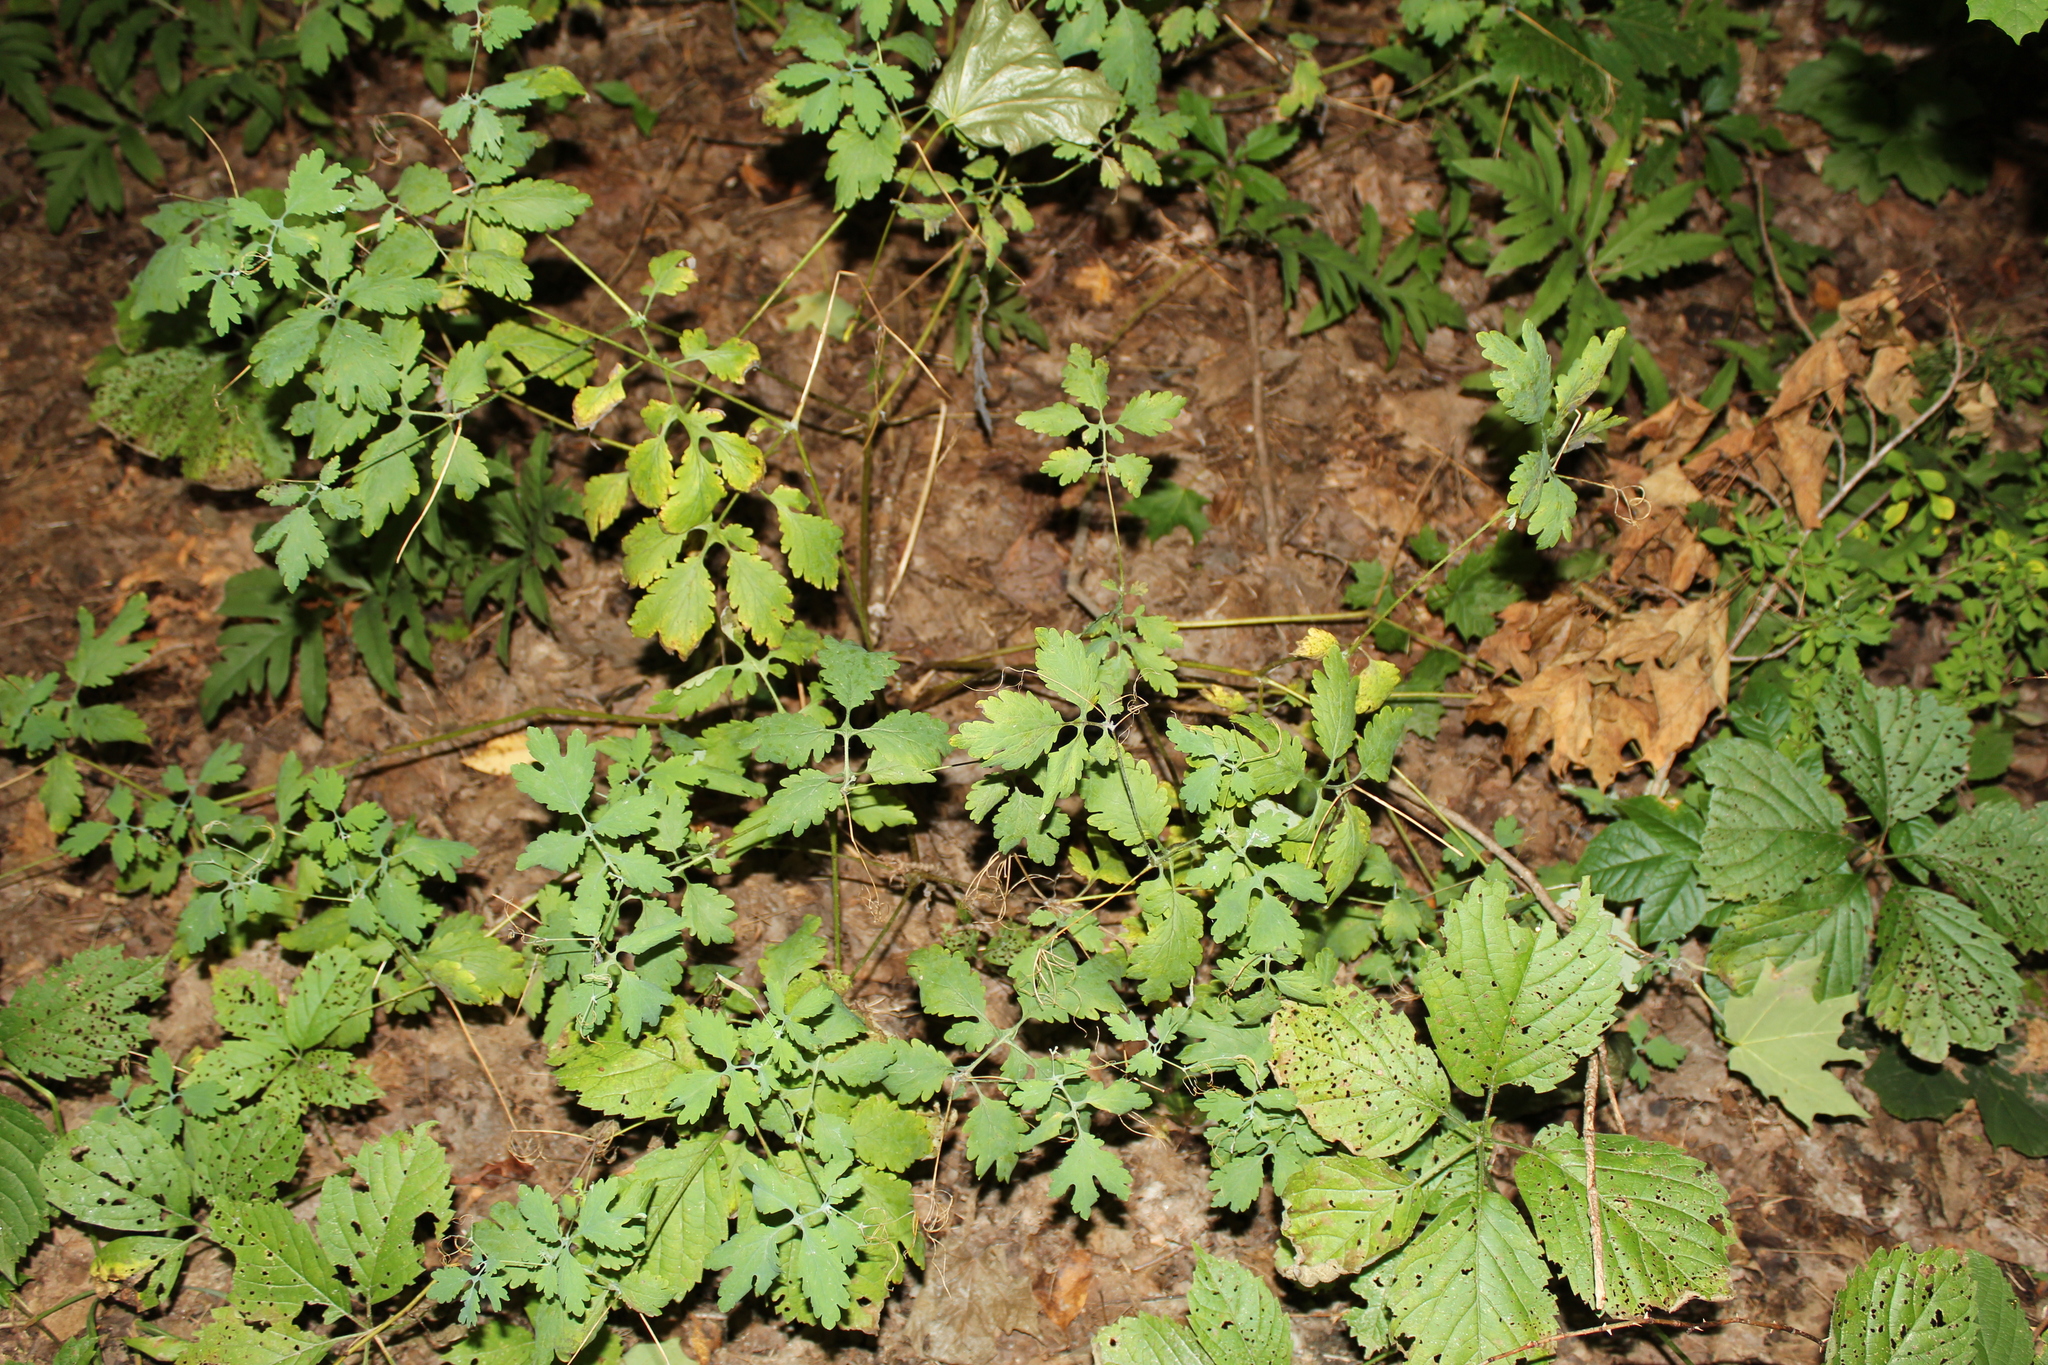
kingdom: Plantae
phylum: Tracheophyta
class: Magnoliopsida
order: Ranunculales
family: Papaveraceae
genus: Chelidonium
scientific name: Chelidonium majus
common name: Greater celandine
